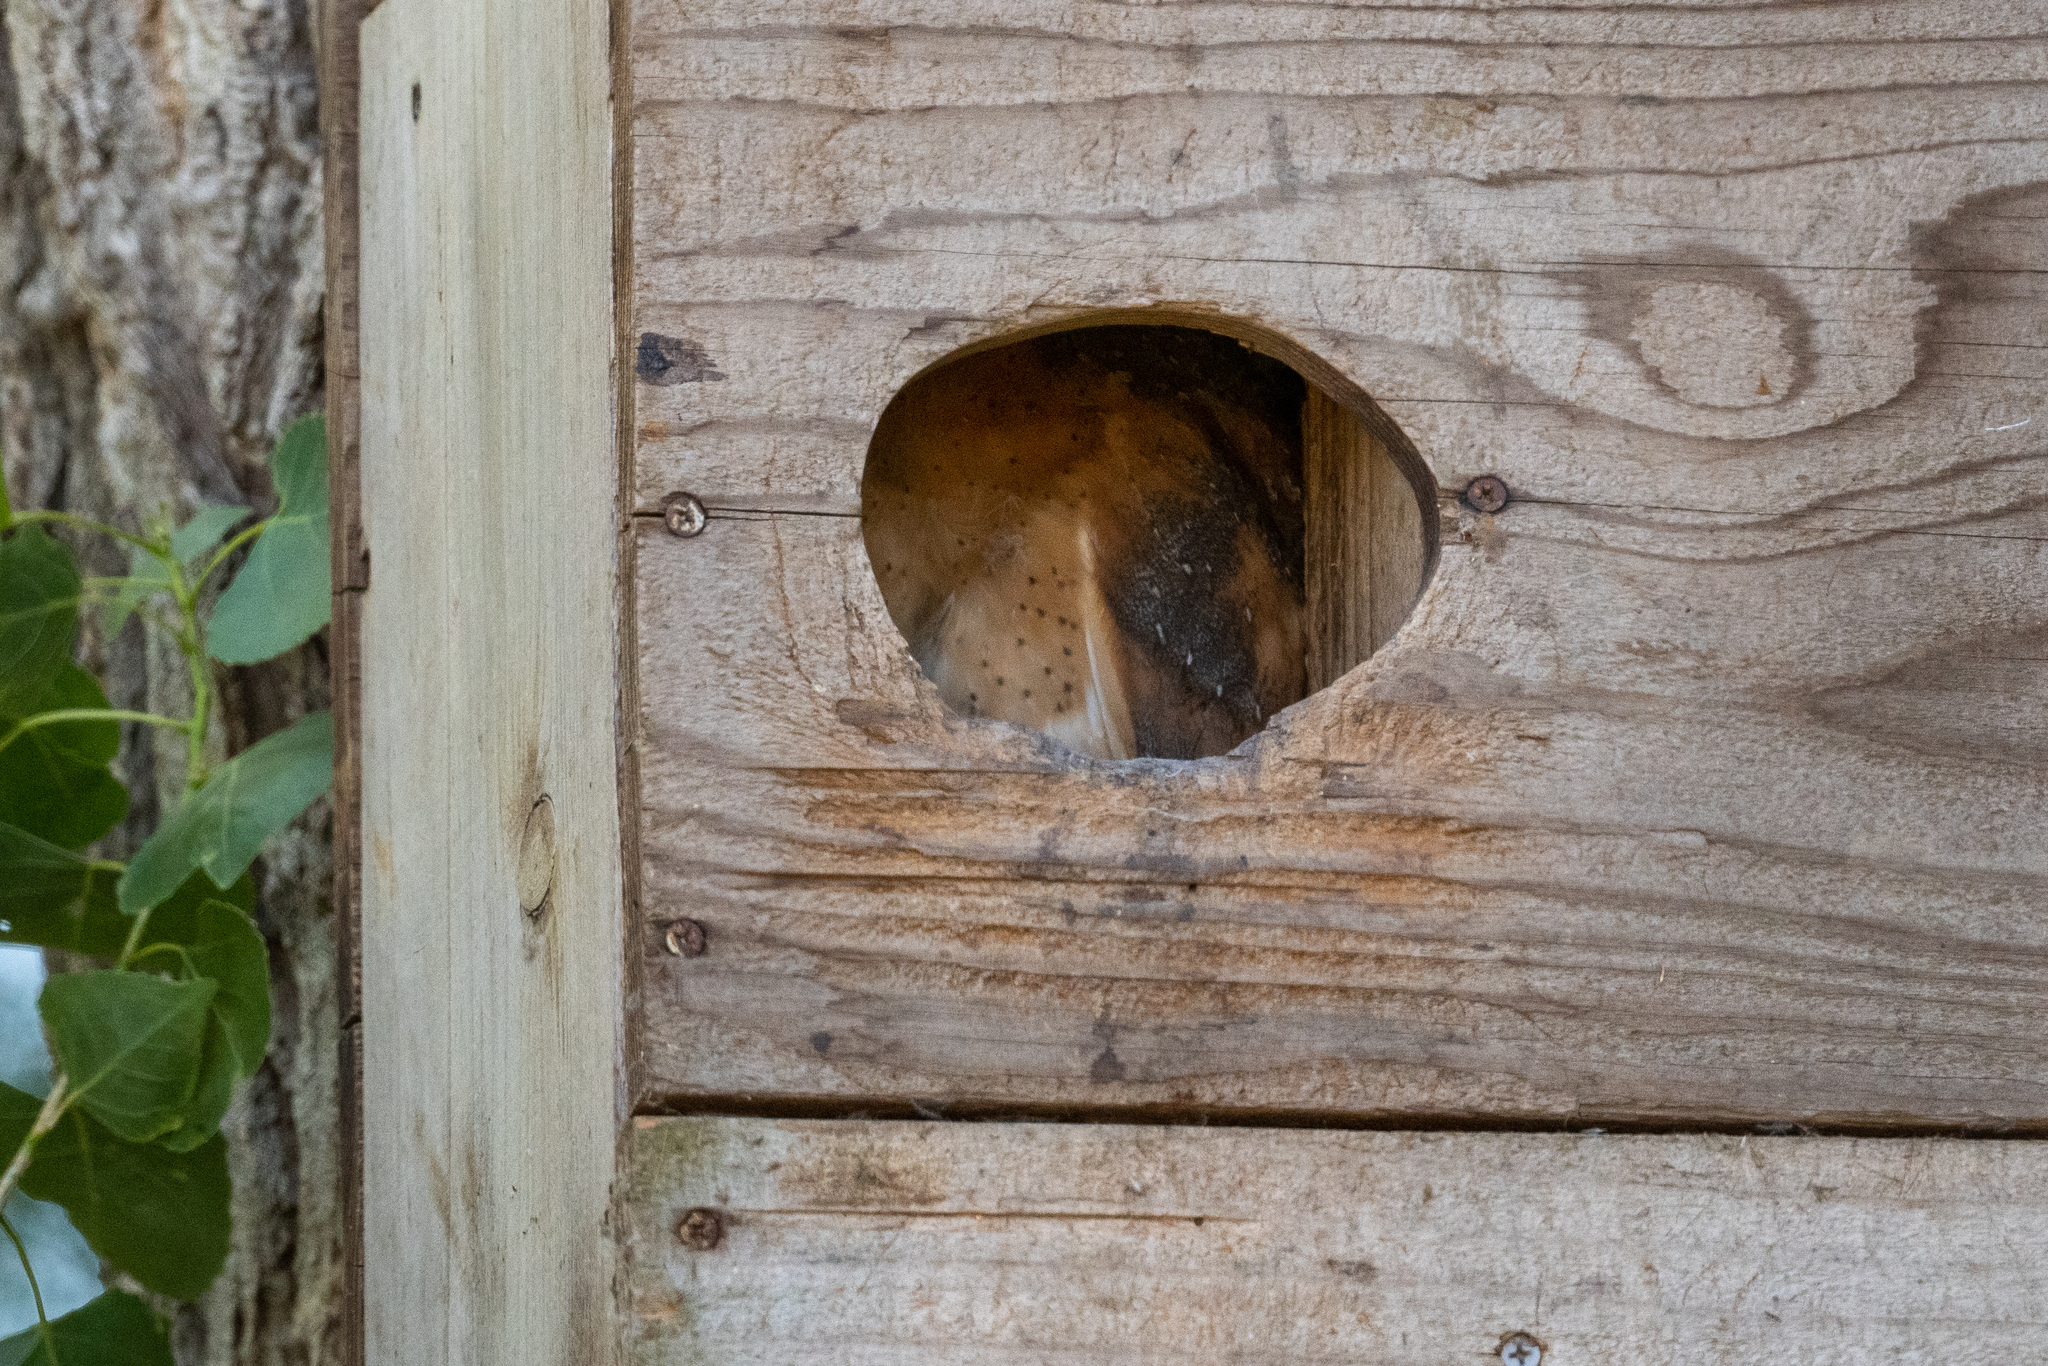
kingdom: Animalia
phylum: Chordata
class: Aves
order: Strigiformes
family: Tytonidae
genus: Tyto
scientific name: Tyto alba
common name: Barn owl
